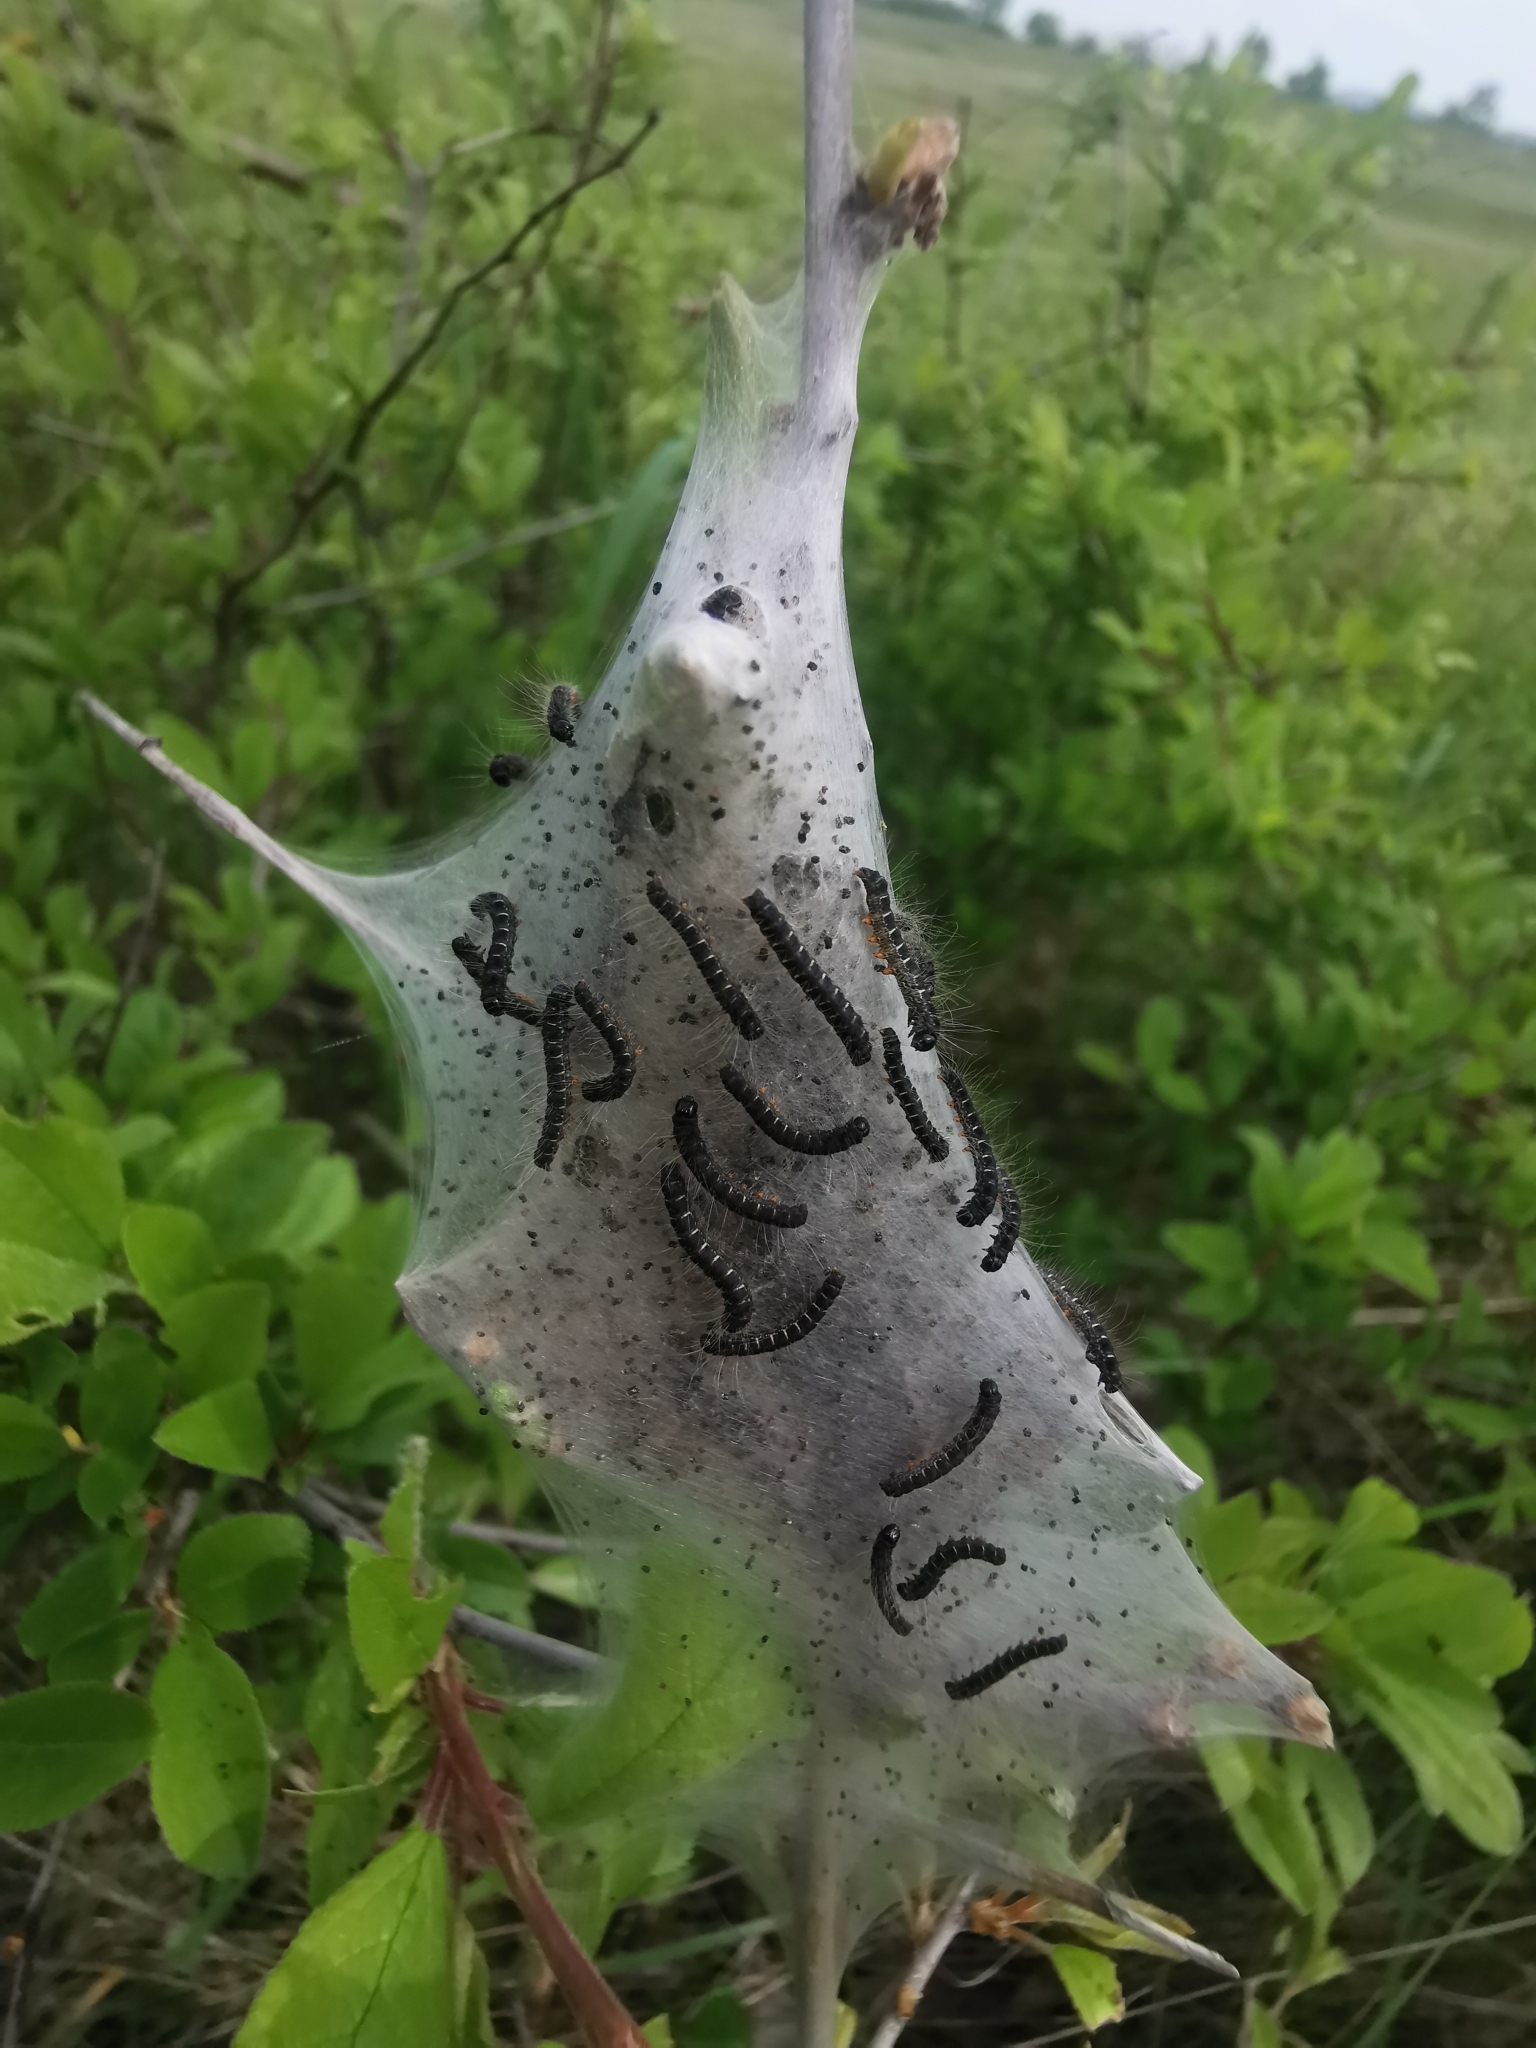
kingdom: Animalia
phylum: Arthropoda
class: Insecta
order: Lepidoptera
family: Lasiocampidae
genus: Eriogaster
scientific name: Eriogaster lanestris
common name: Small eggar
